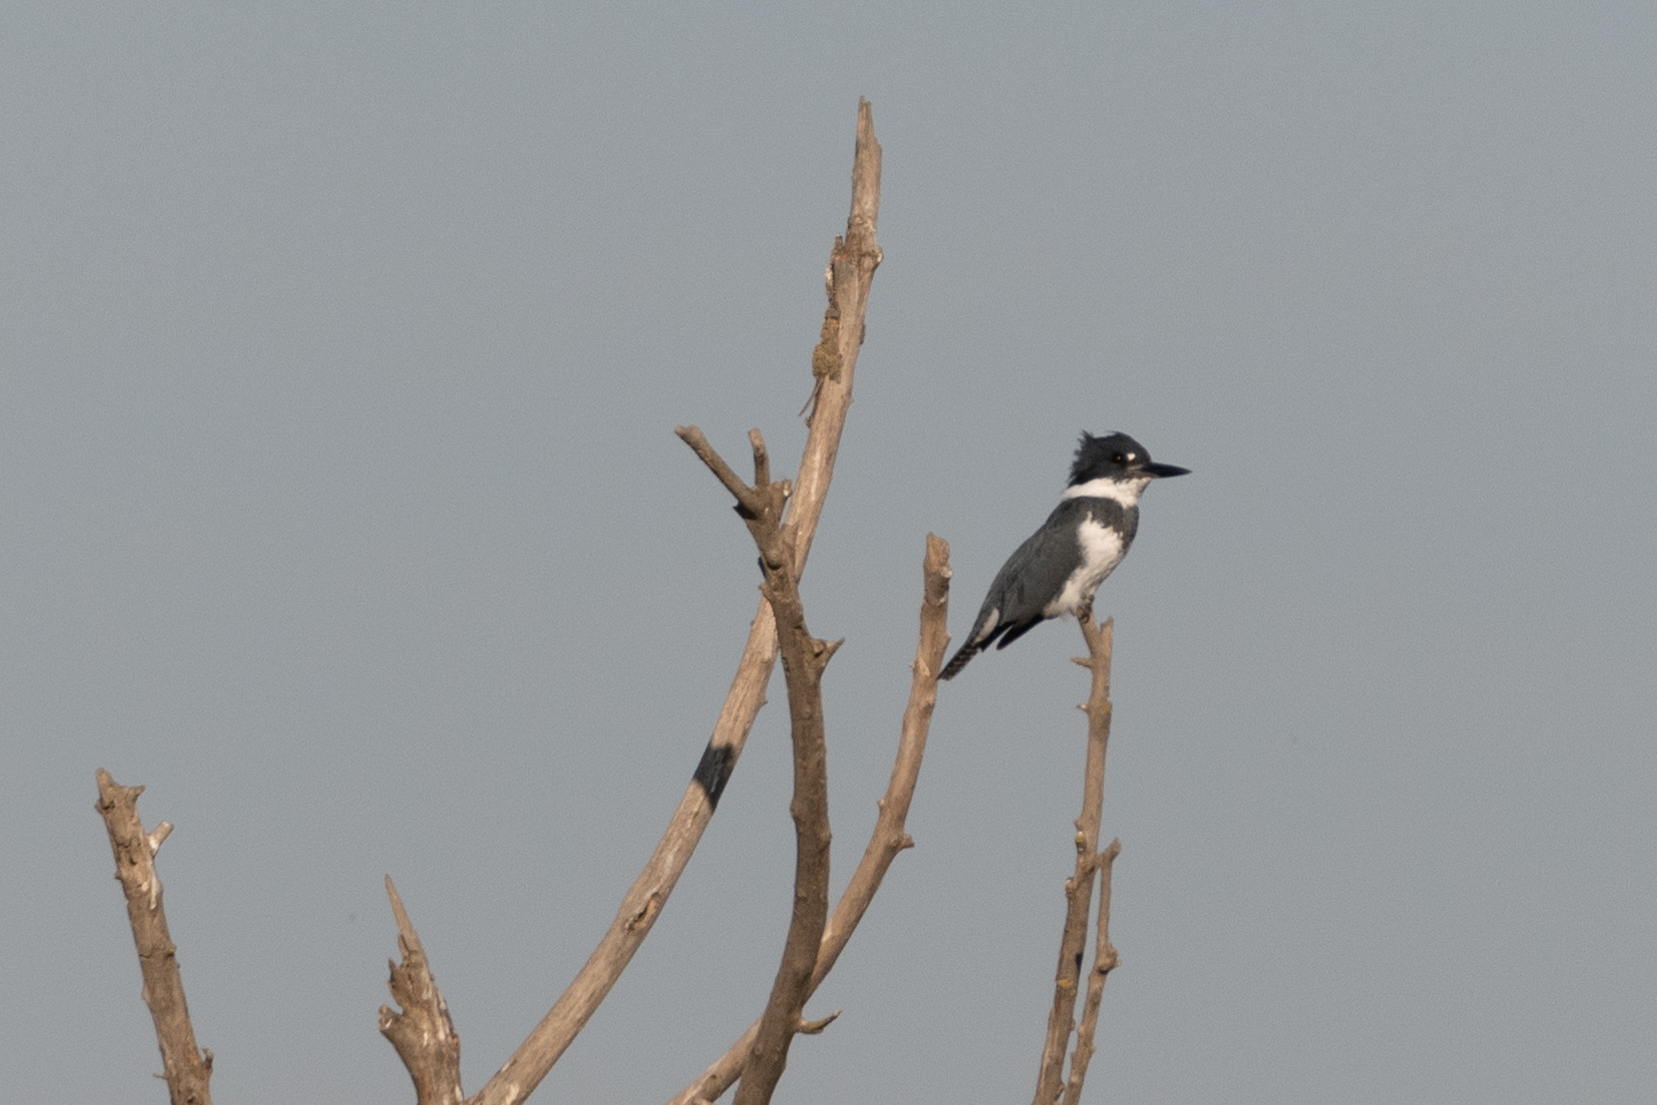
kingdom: Animalia
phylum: Chordata
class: Aves
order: Coraciiformes
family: Alcedinidae
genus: Megaceryle
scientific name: Megaceryle alcyon
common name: Belted kingfisher
